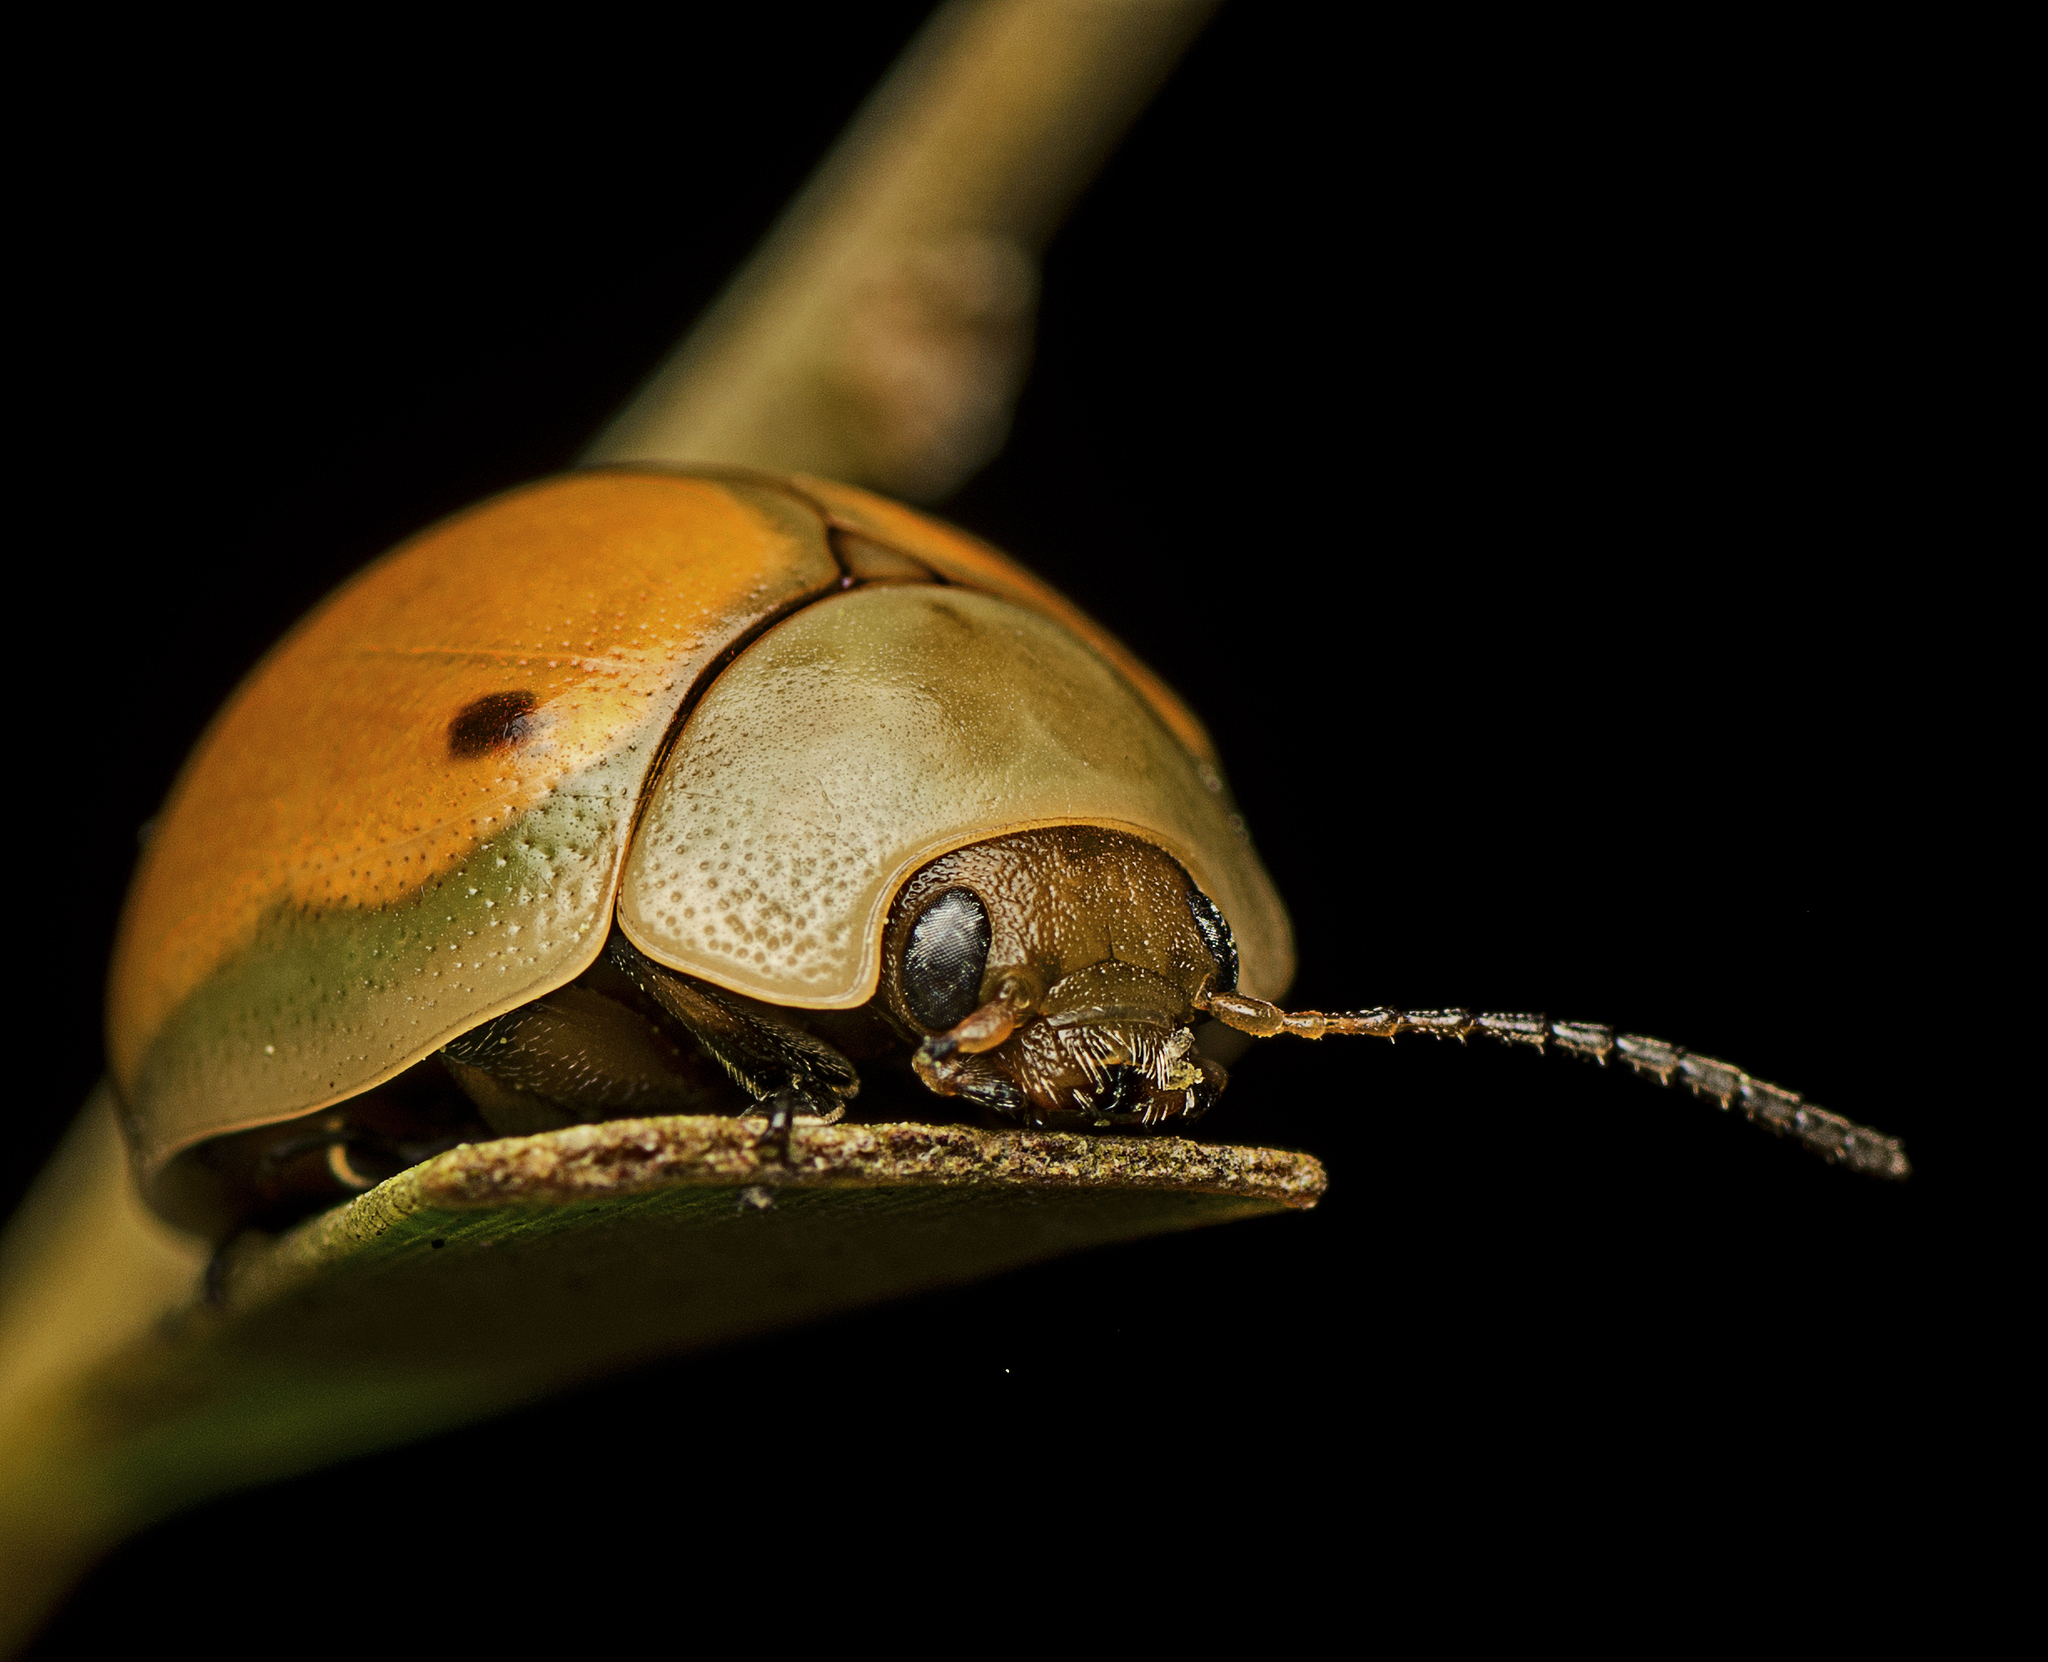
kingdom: Animalia
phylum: Arthropoda
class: Insecta
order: Coleoptera
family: Chrysomelidae
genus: Dicranosterna
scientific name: Dicranosterna
